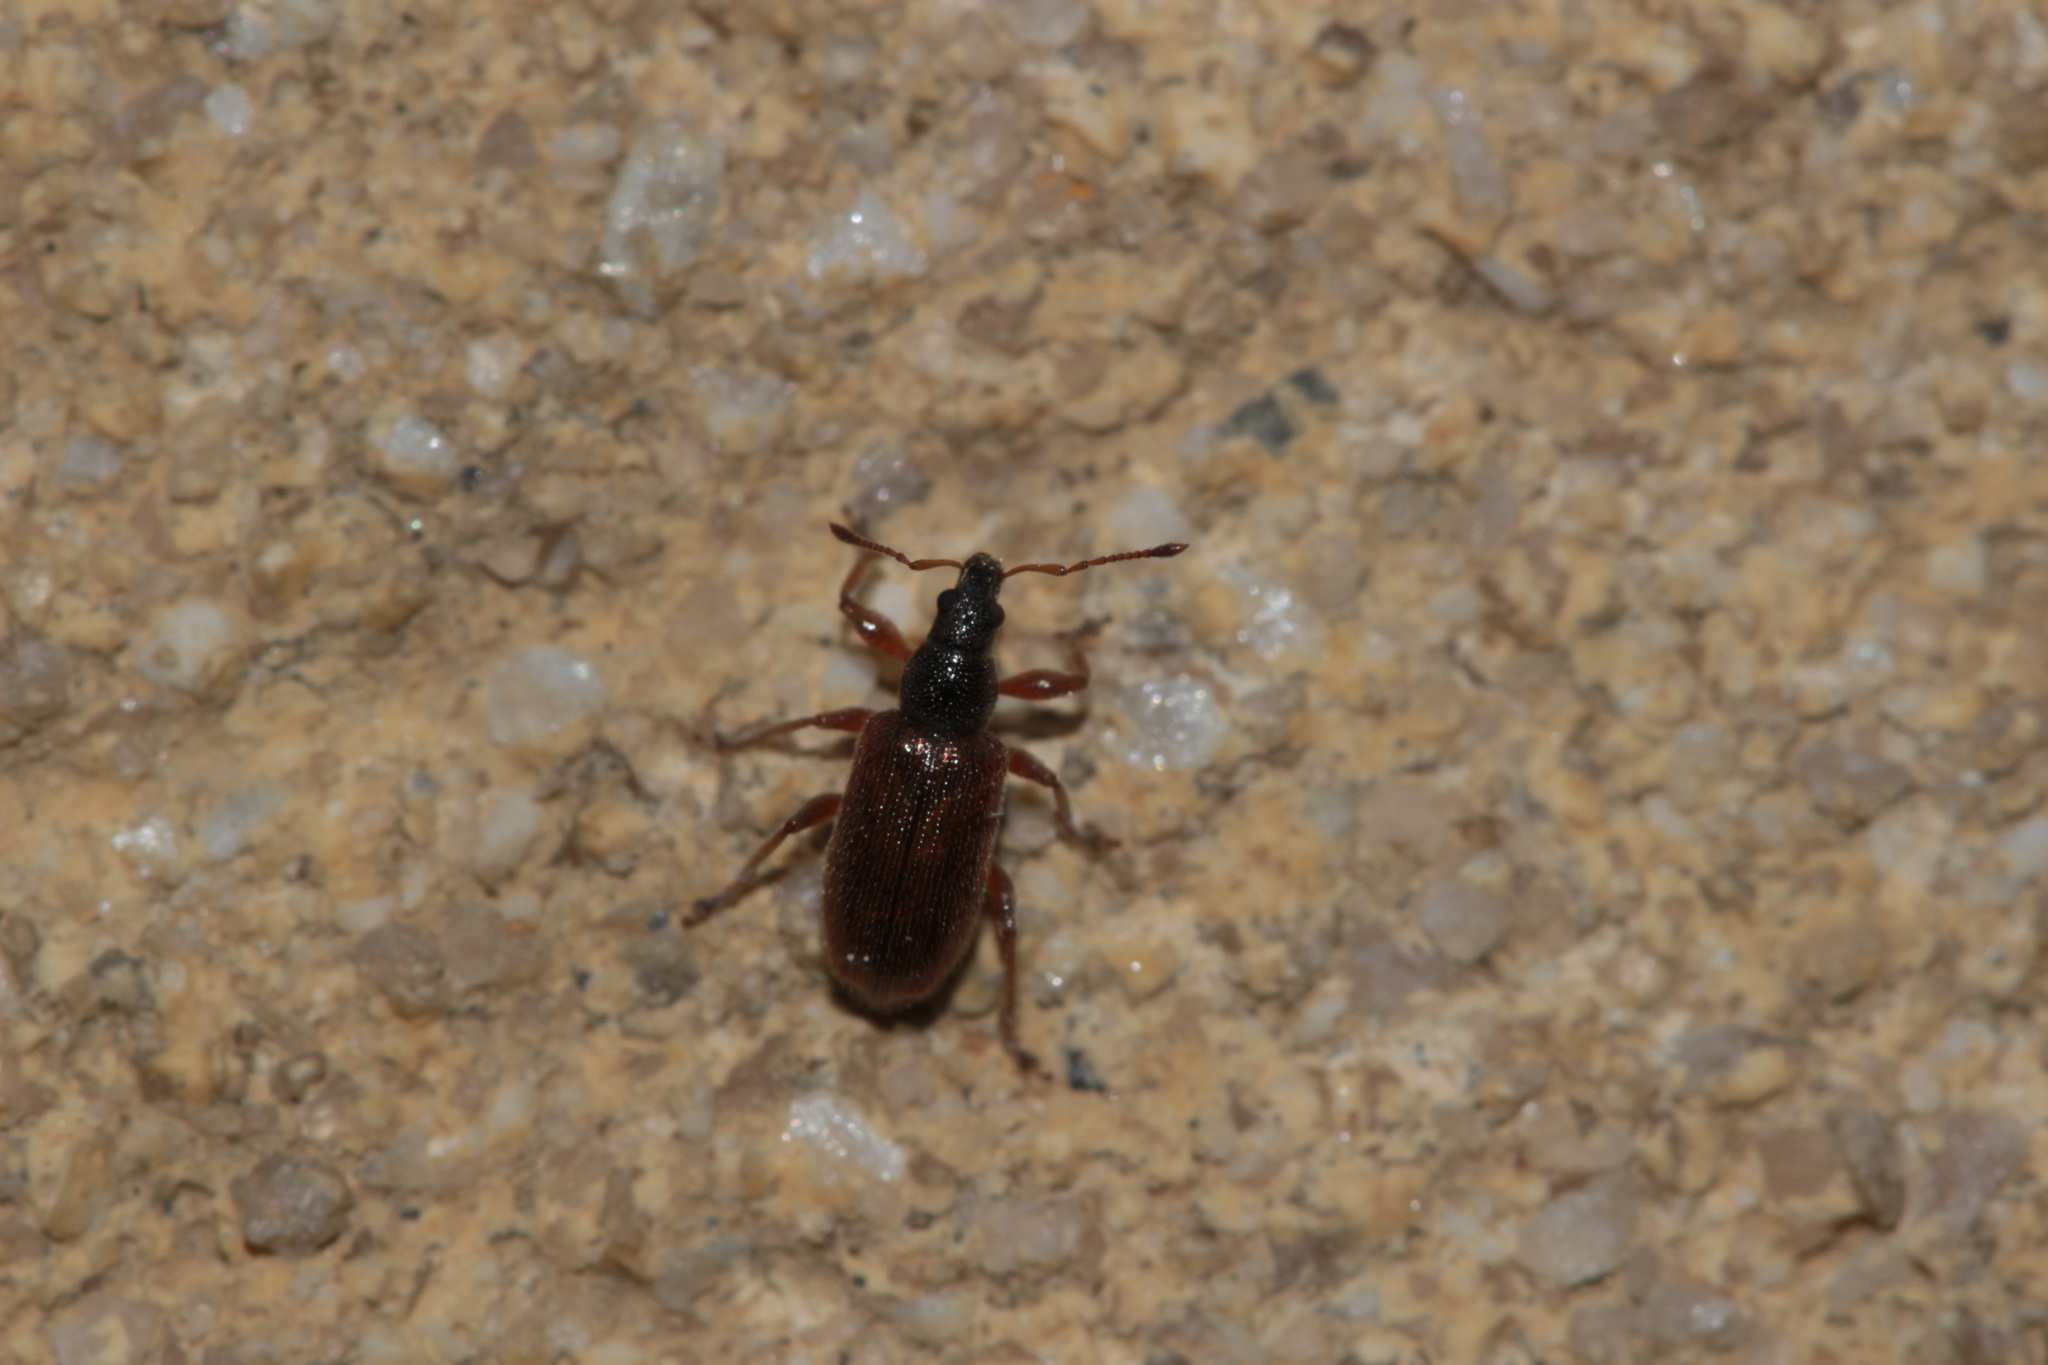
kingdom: Animalia
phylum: Arthropoda
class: Insecta
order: Coleoptera
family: Curculionidae
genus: Phyllobius
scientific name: Phyllobius oblongus
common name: Brown leaf weevil
